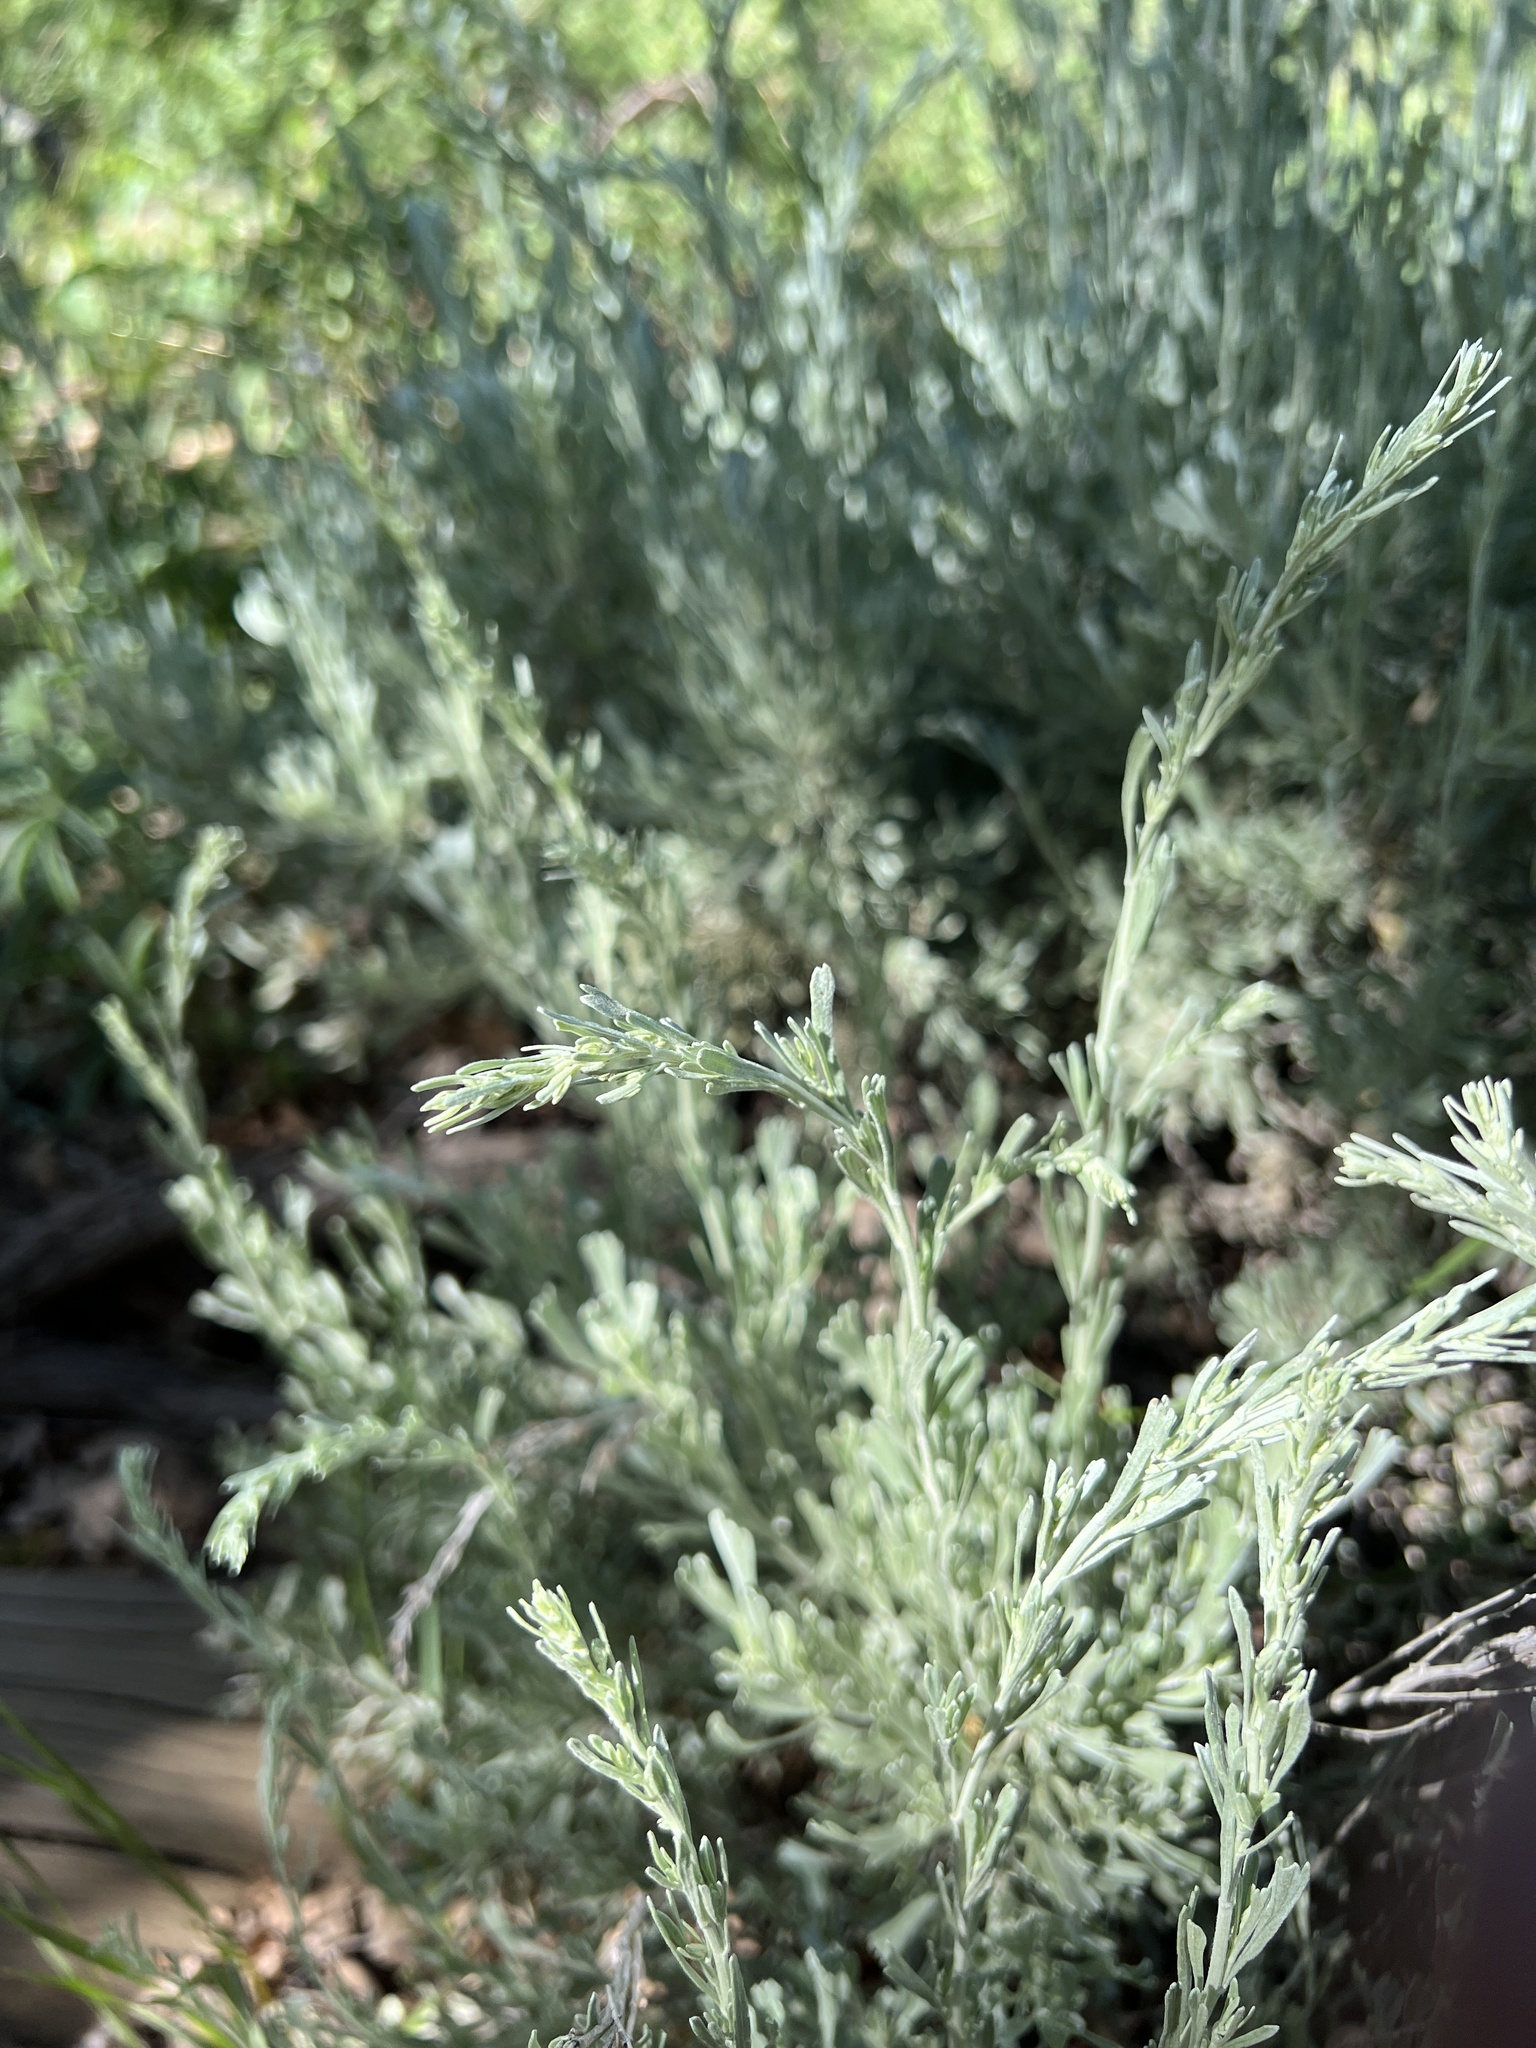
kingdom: Plantae
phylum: Tracheophyta
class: Magnoliopsida
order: Asterales
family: Asteraceae
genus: Artemisia
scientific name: Artemisia tridentata
